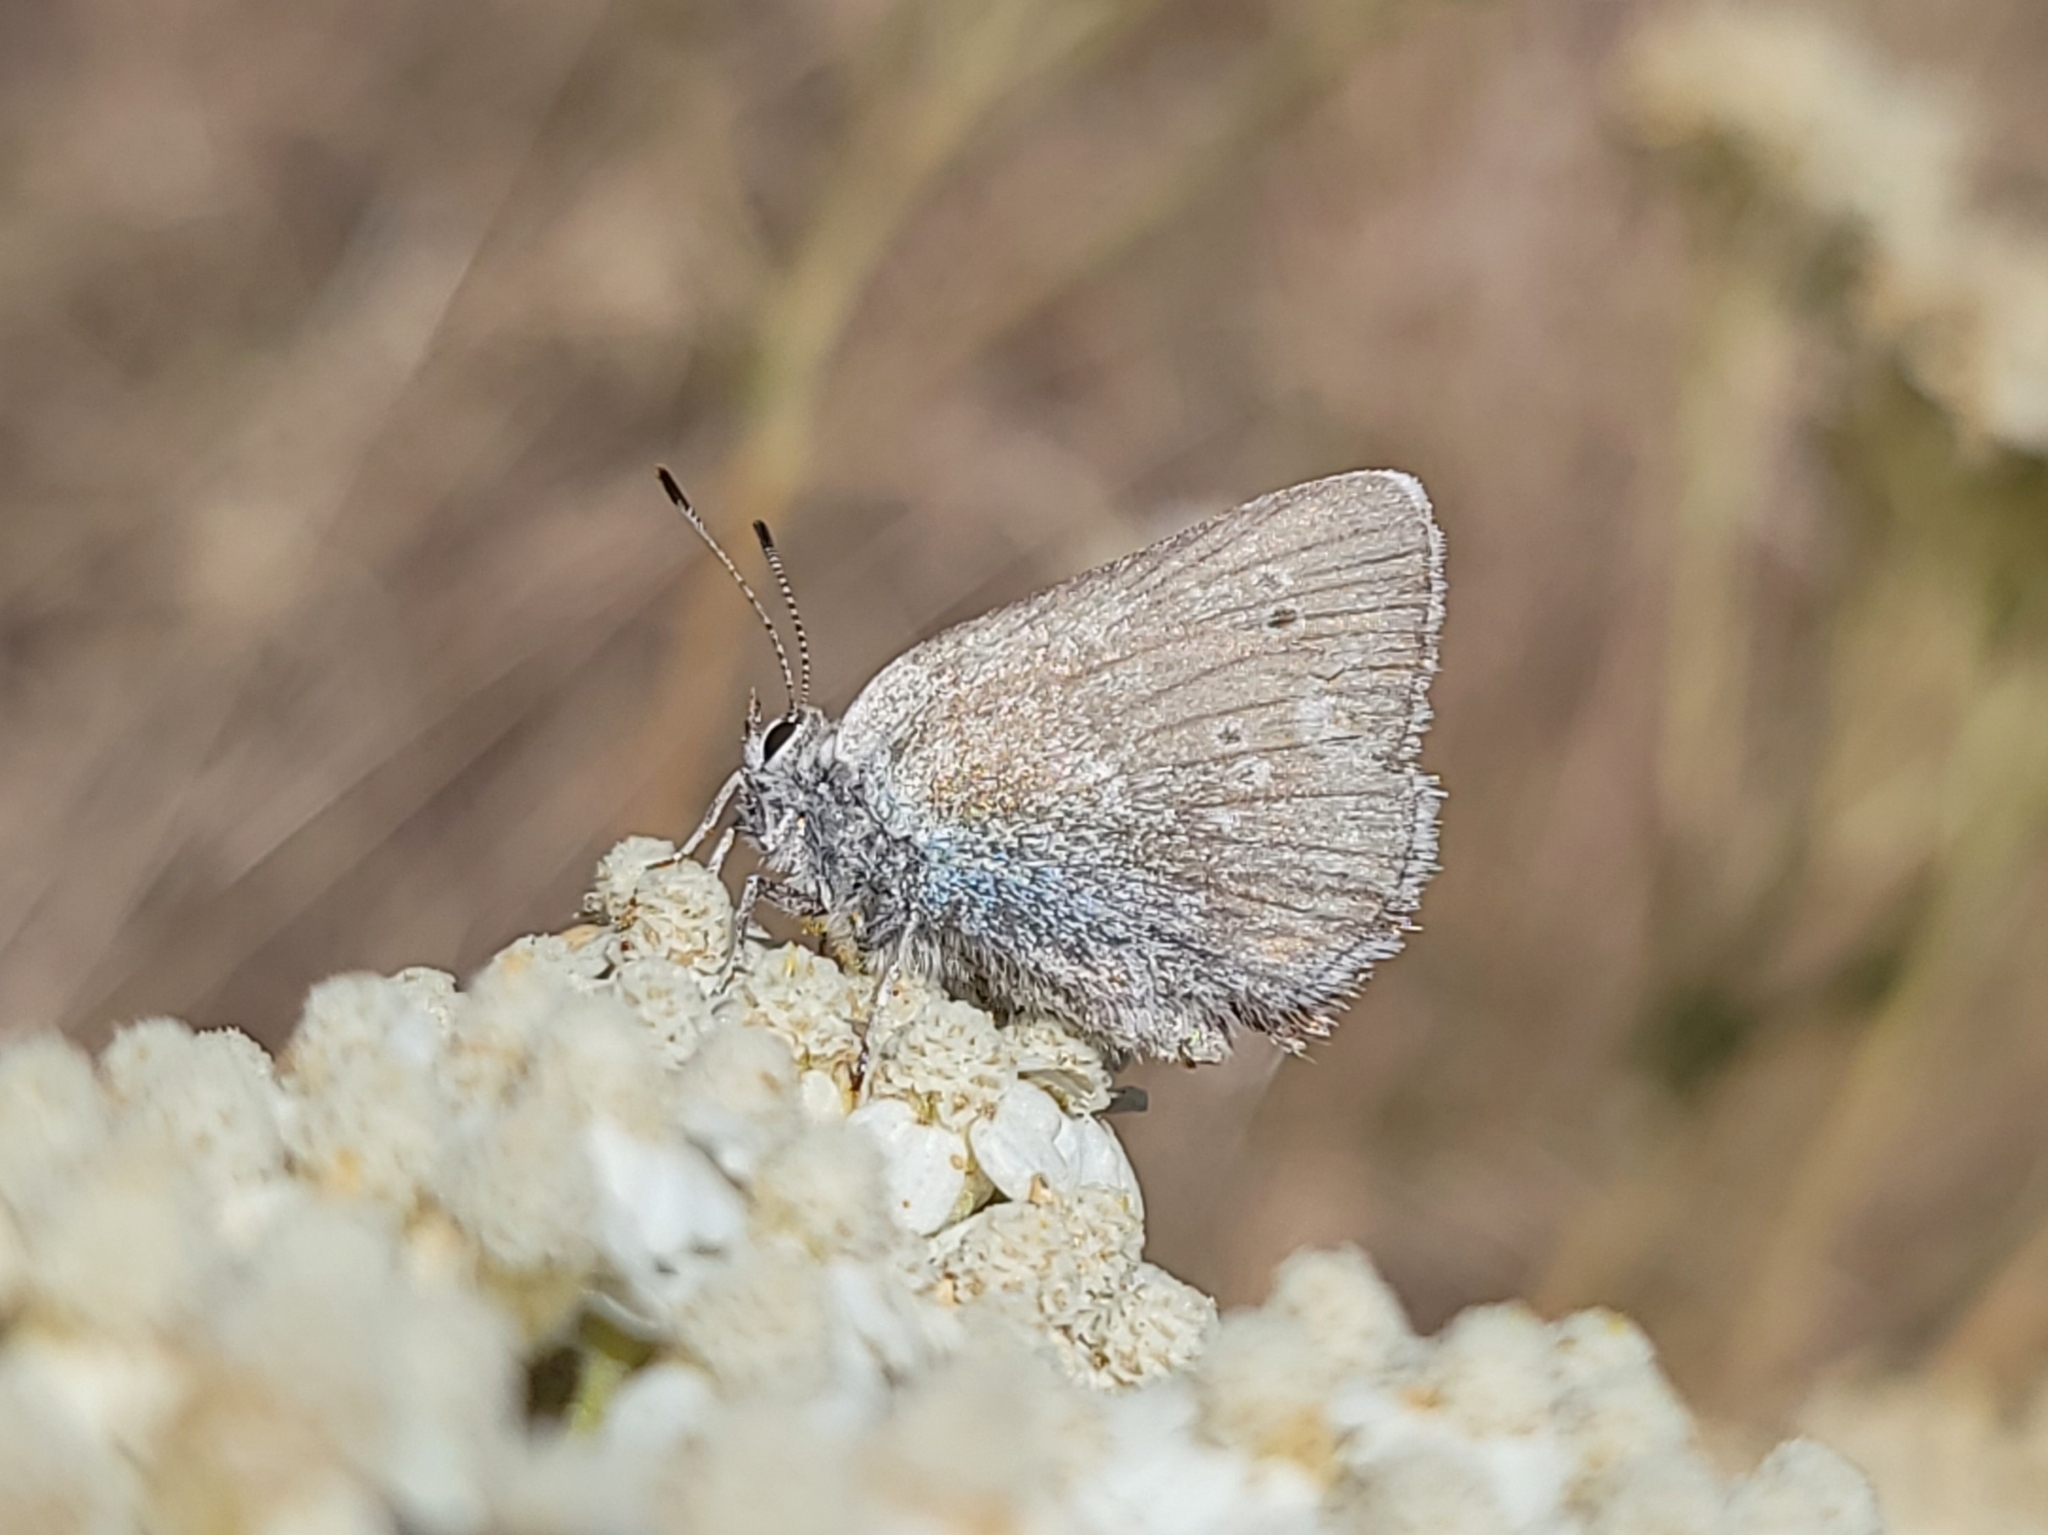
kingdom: Animalia
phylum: Arthropoda
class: Insecta
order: Lepidoptera
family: Lycaenidae
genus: Satyrium
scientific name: Satyrium fuliginosa
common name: Western sooty hairstreak
